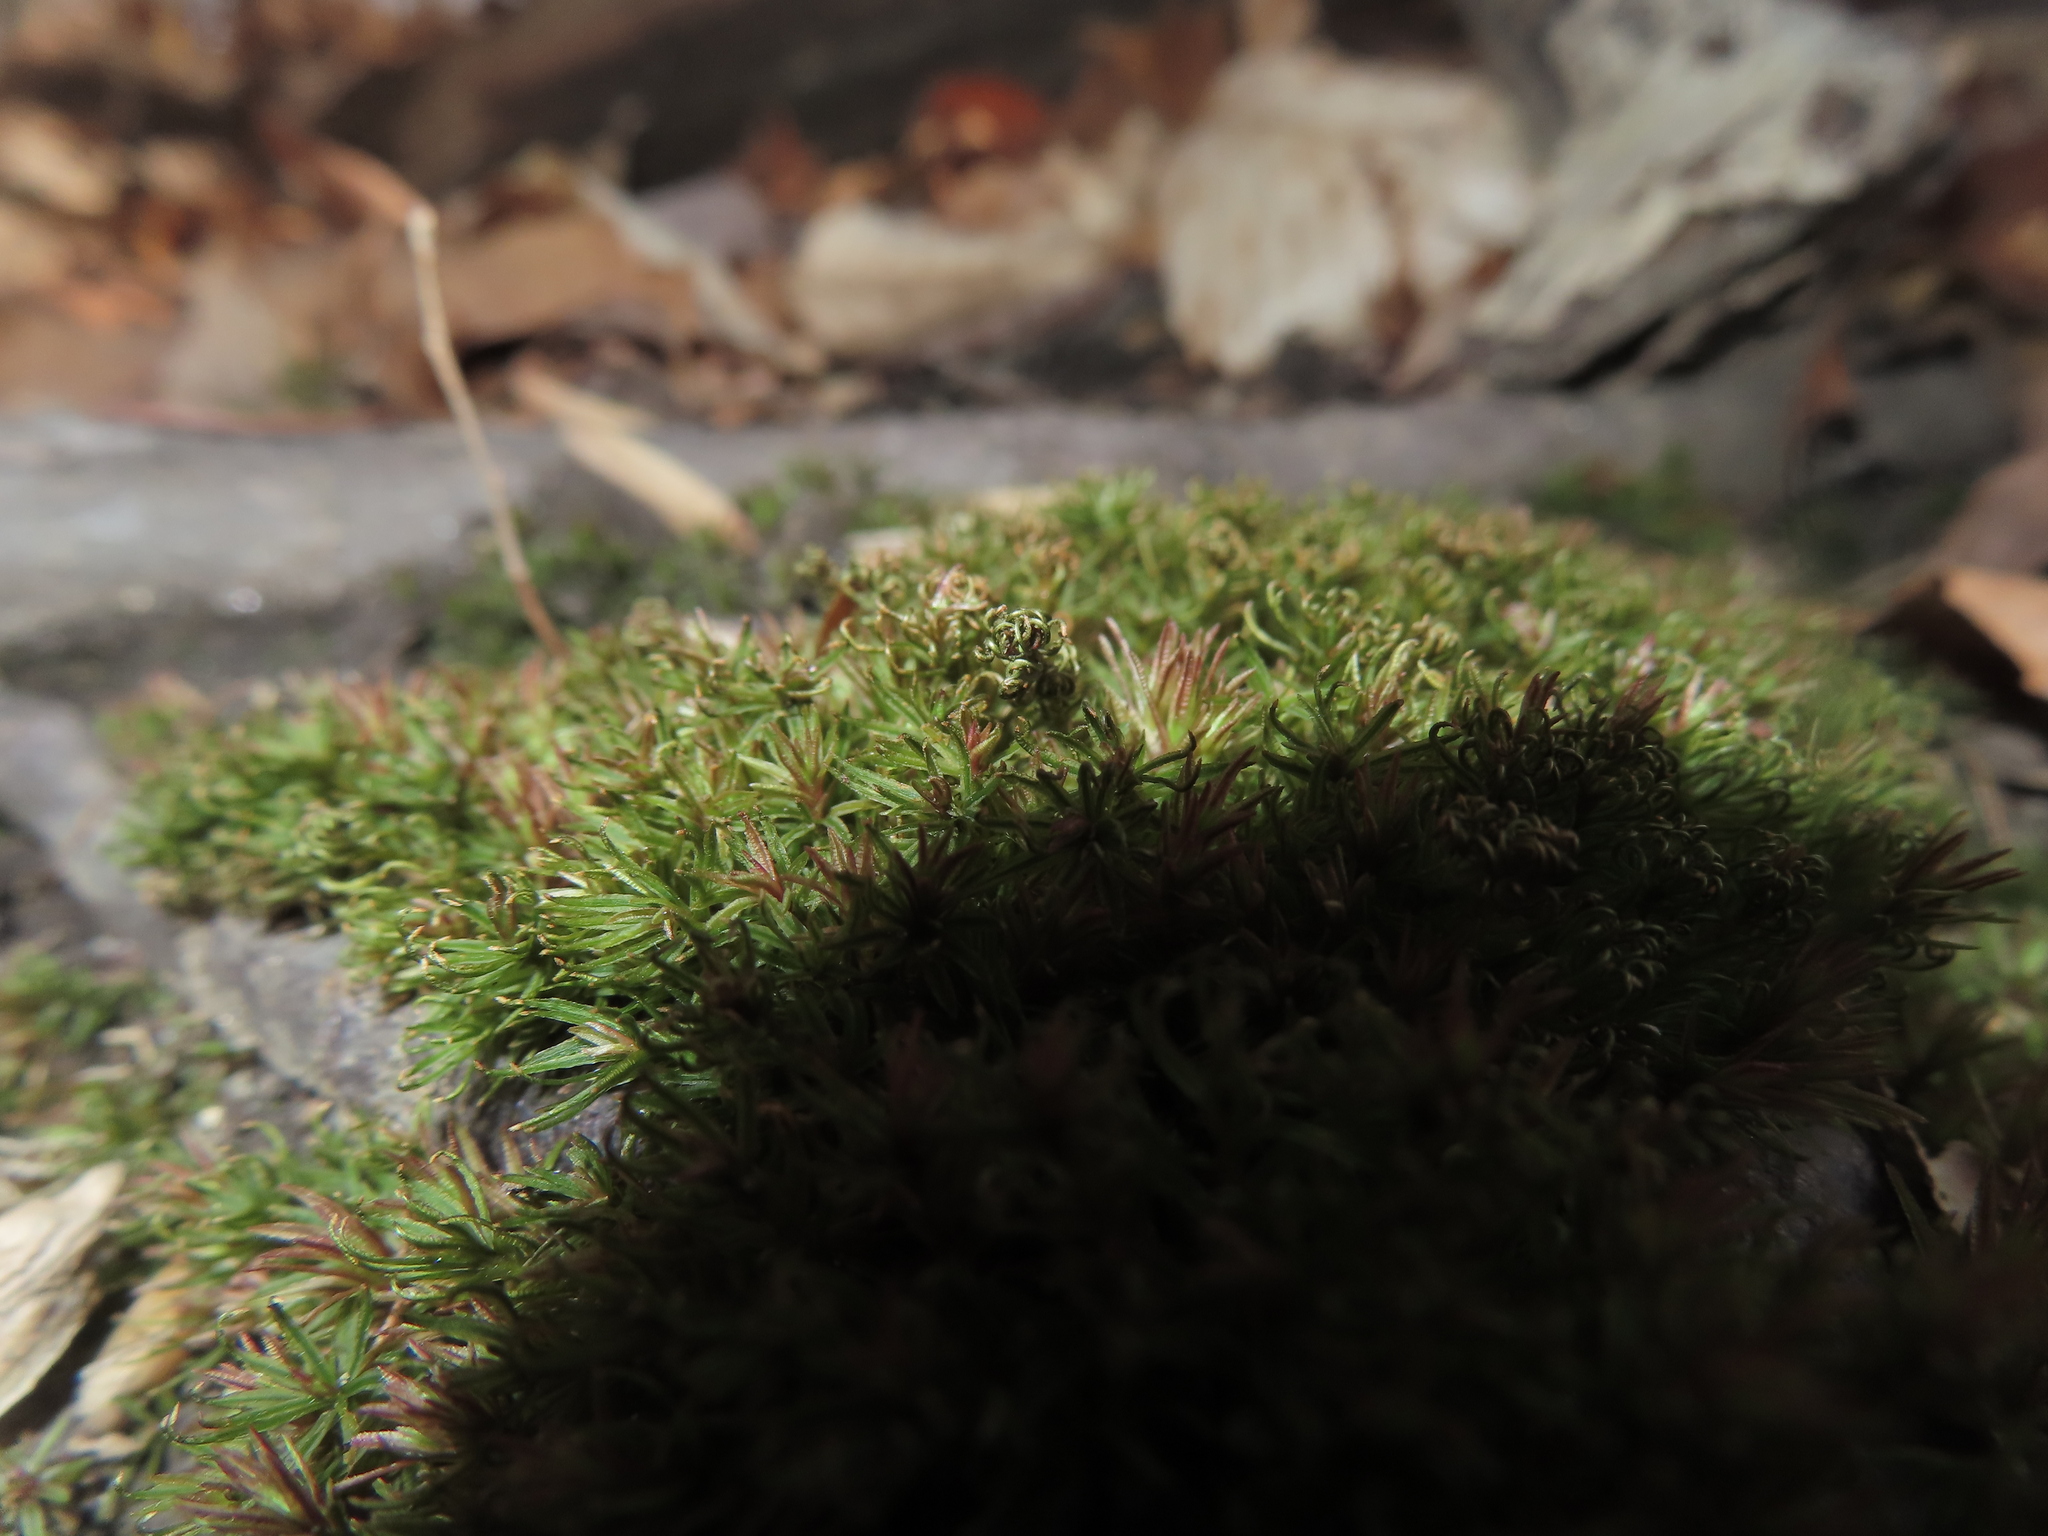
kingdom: Plantae
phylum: Bryophyta
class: Polytrichopsida
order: Polytrichales
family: Polytrichaceae
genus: Atrichum
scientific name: Atrichum angustatum
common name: Lesser smoothcap
